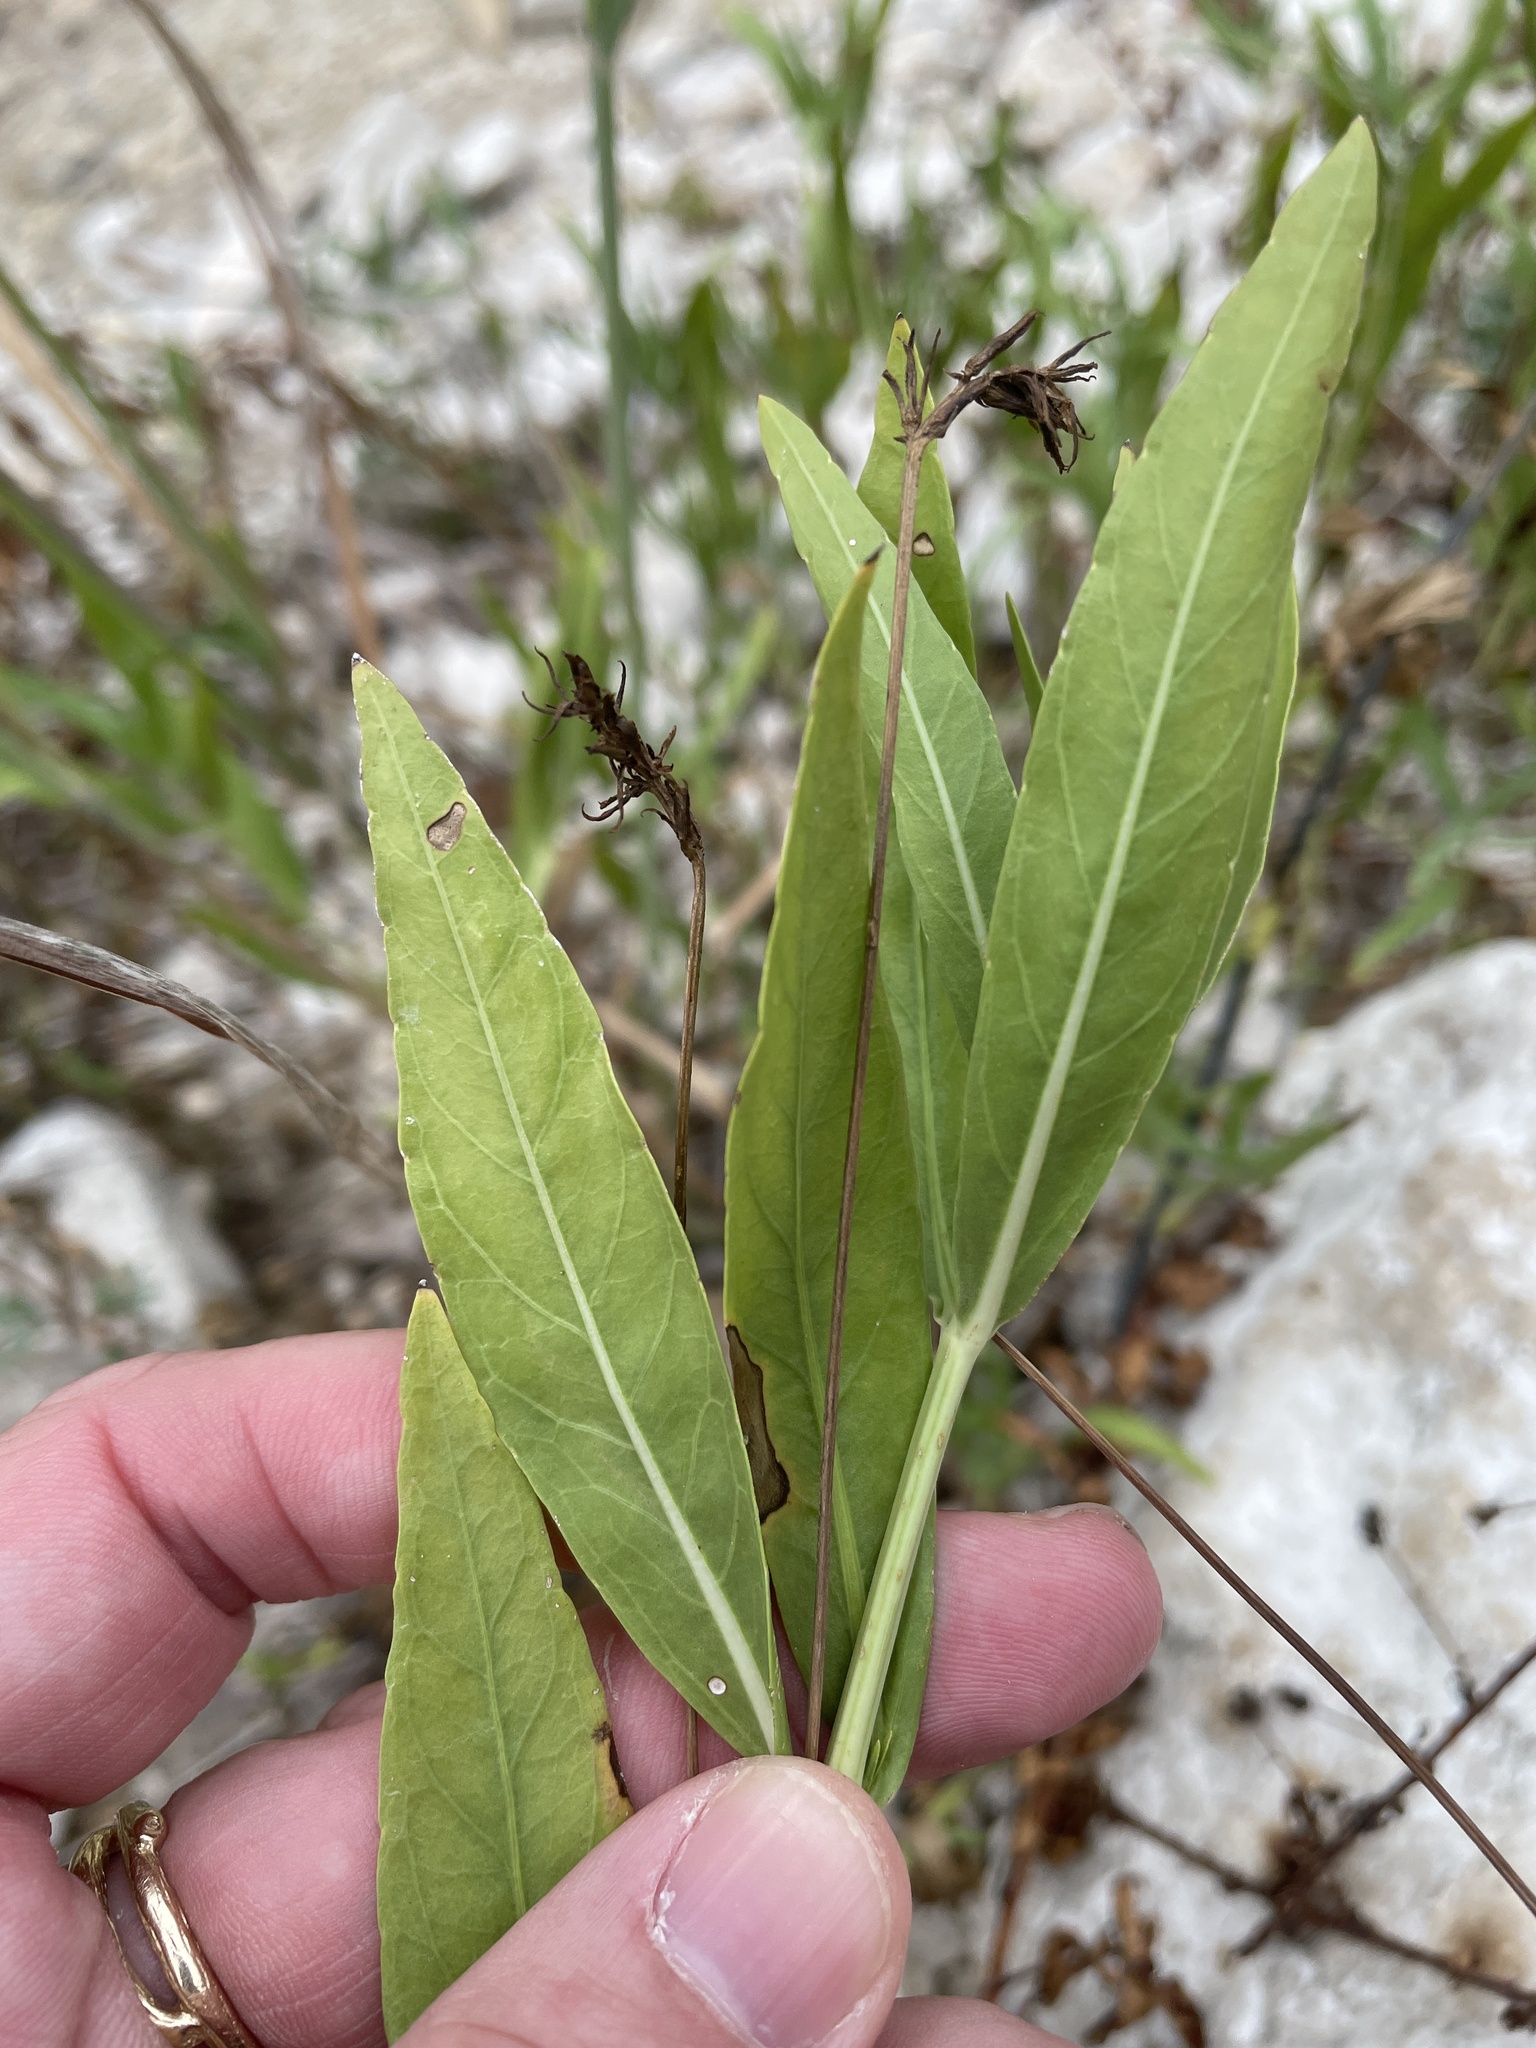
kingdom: Plantae
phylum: Tracheophyta
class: Magnoliopsida
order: Lamiales
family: Acanthaceae
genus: Dianthera
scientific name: Dianthera americana
